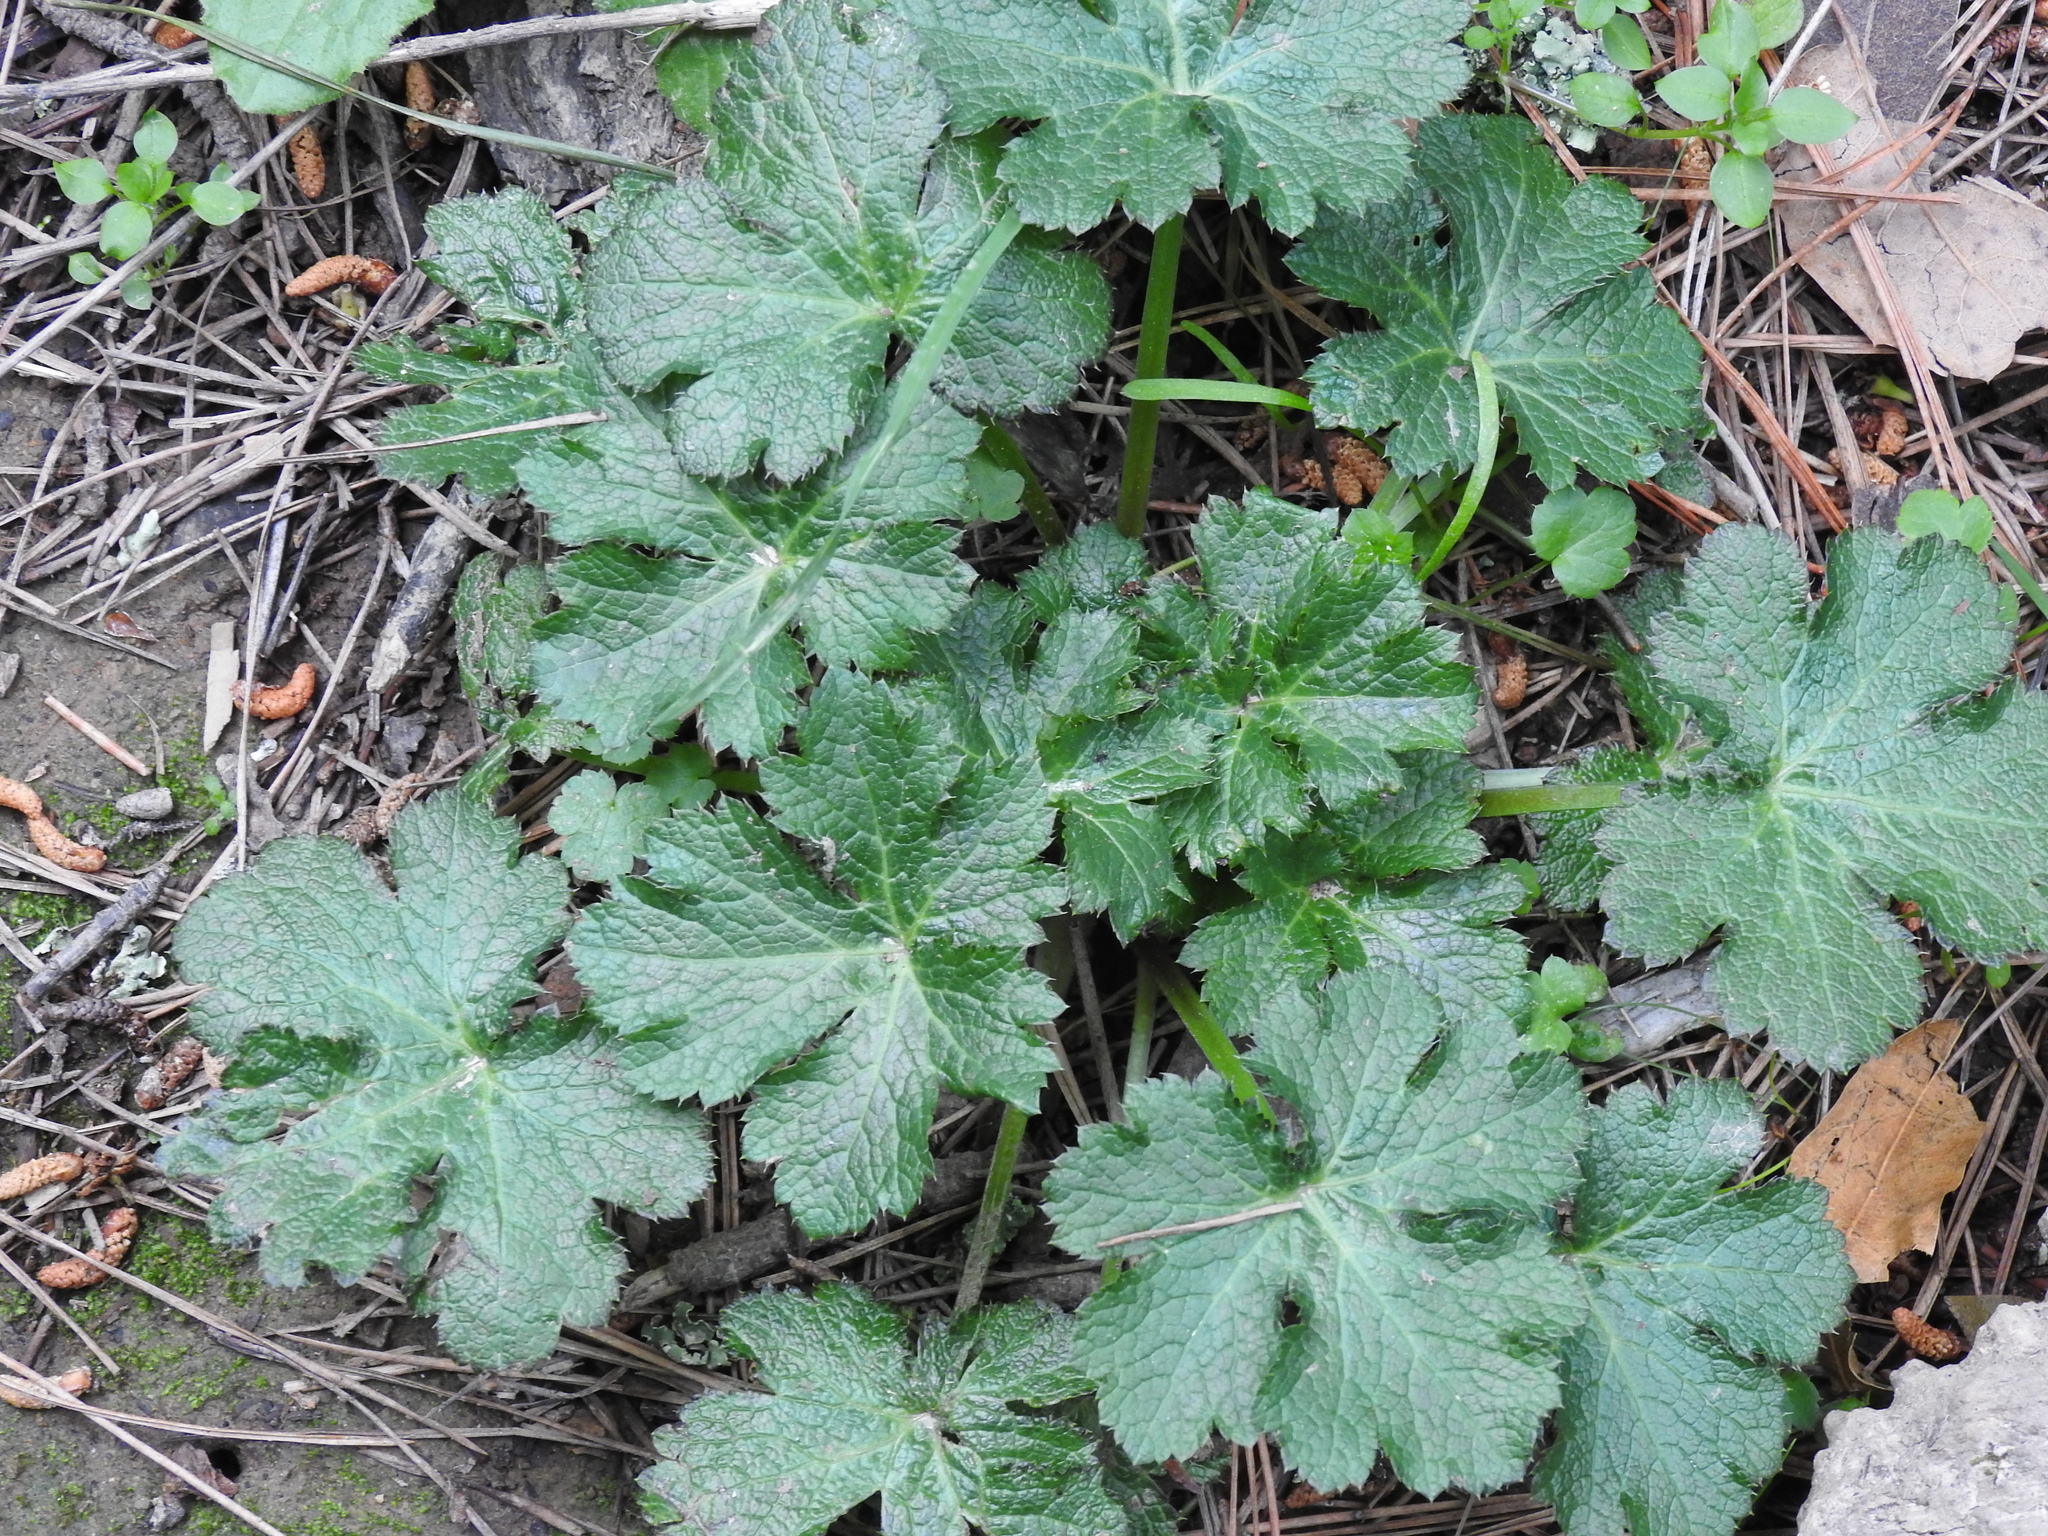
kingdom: Plantae
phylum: Tracheophyta
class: Magnoliopsida
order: Apiales
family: Apiaceae
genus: Sanicula
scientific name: Sanicula crassicaulis
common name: Western snakeroot
